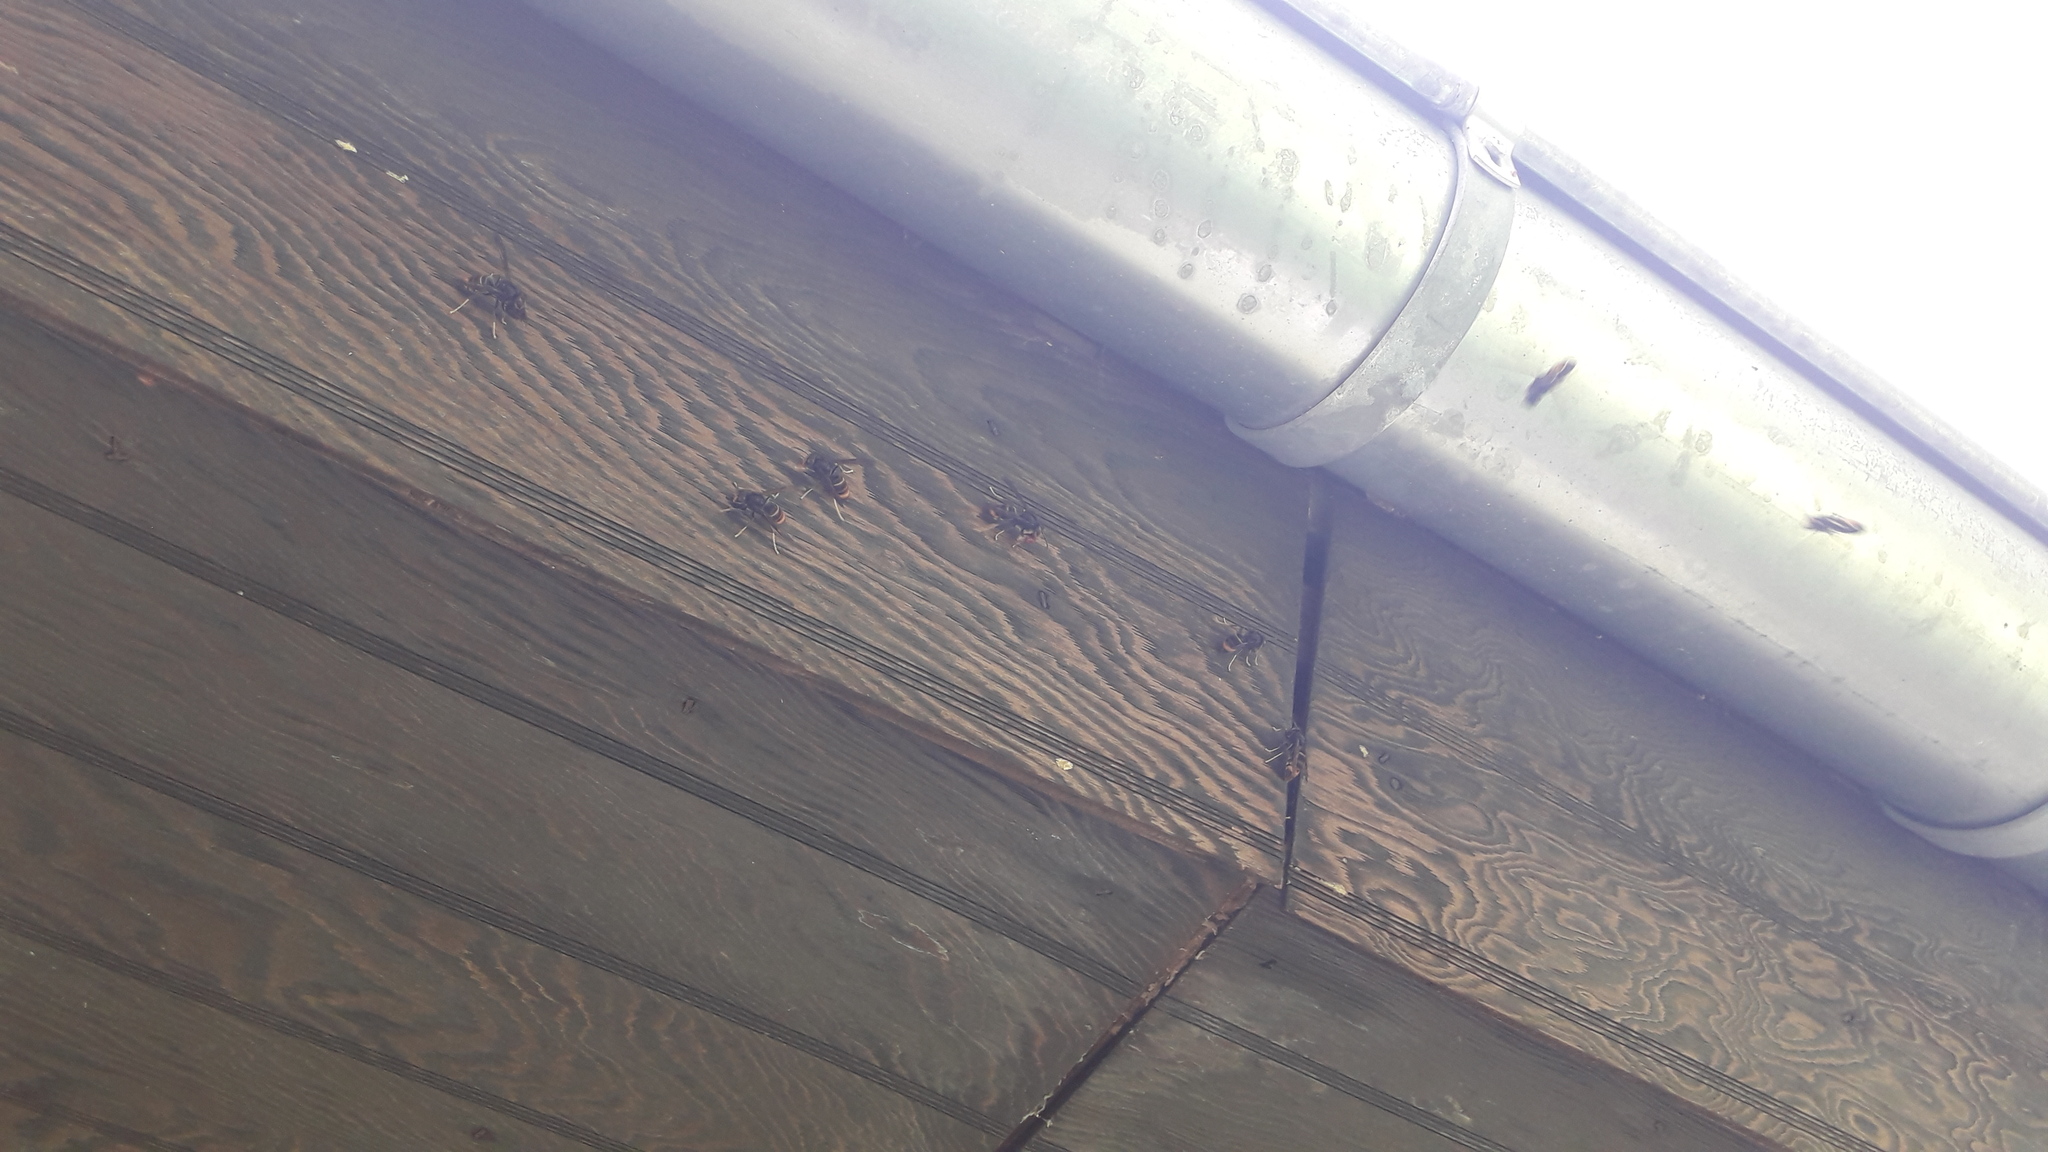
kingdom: Animalia
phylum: Arthropoda
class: Insecta
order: Hymenoptera
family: Vespidae
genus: Vespa
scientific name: Vespa velutina
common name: Asian hornet
